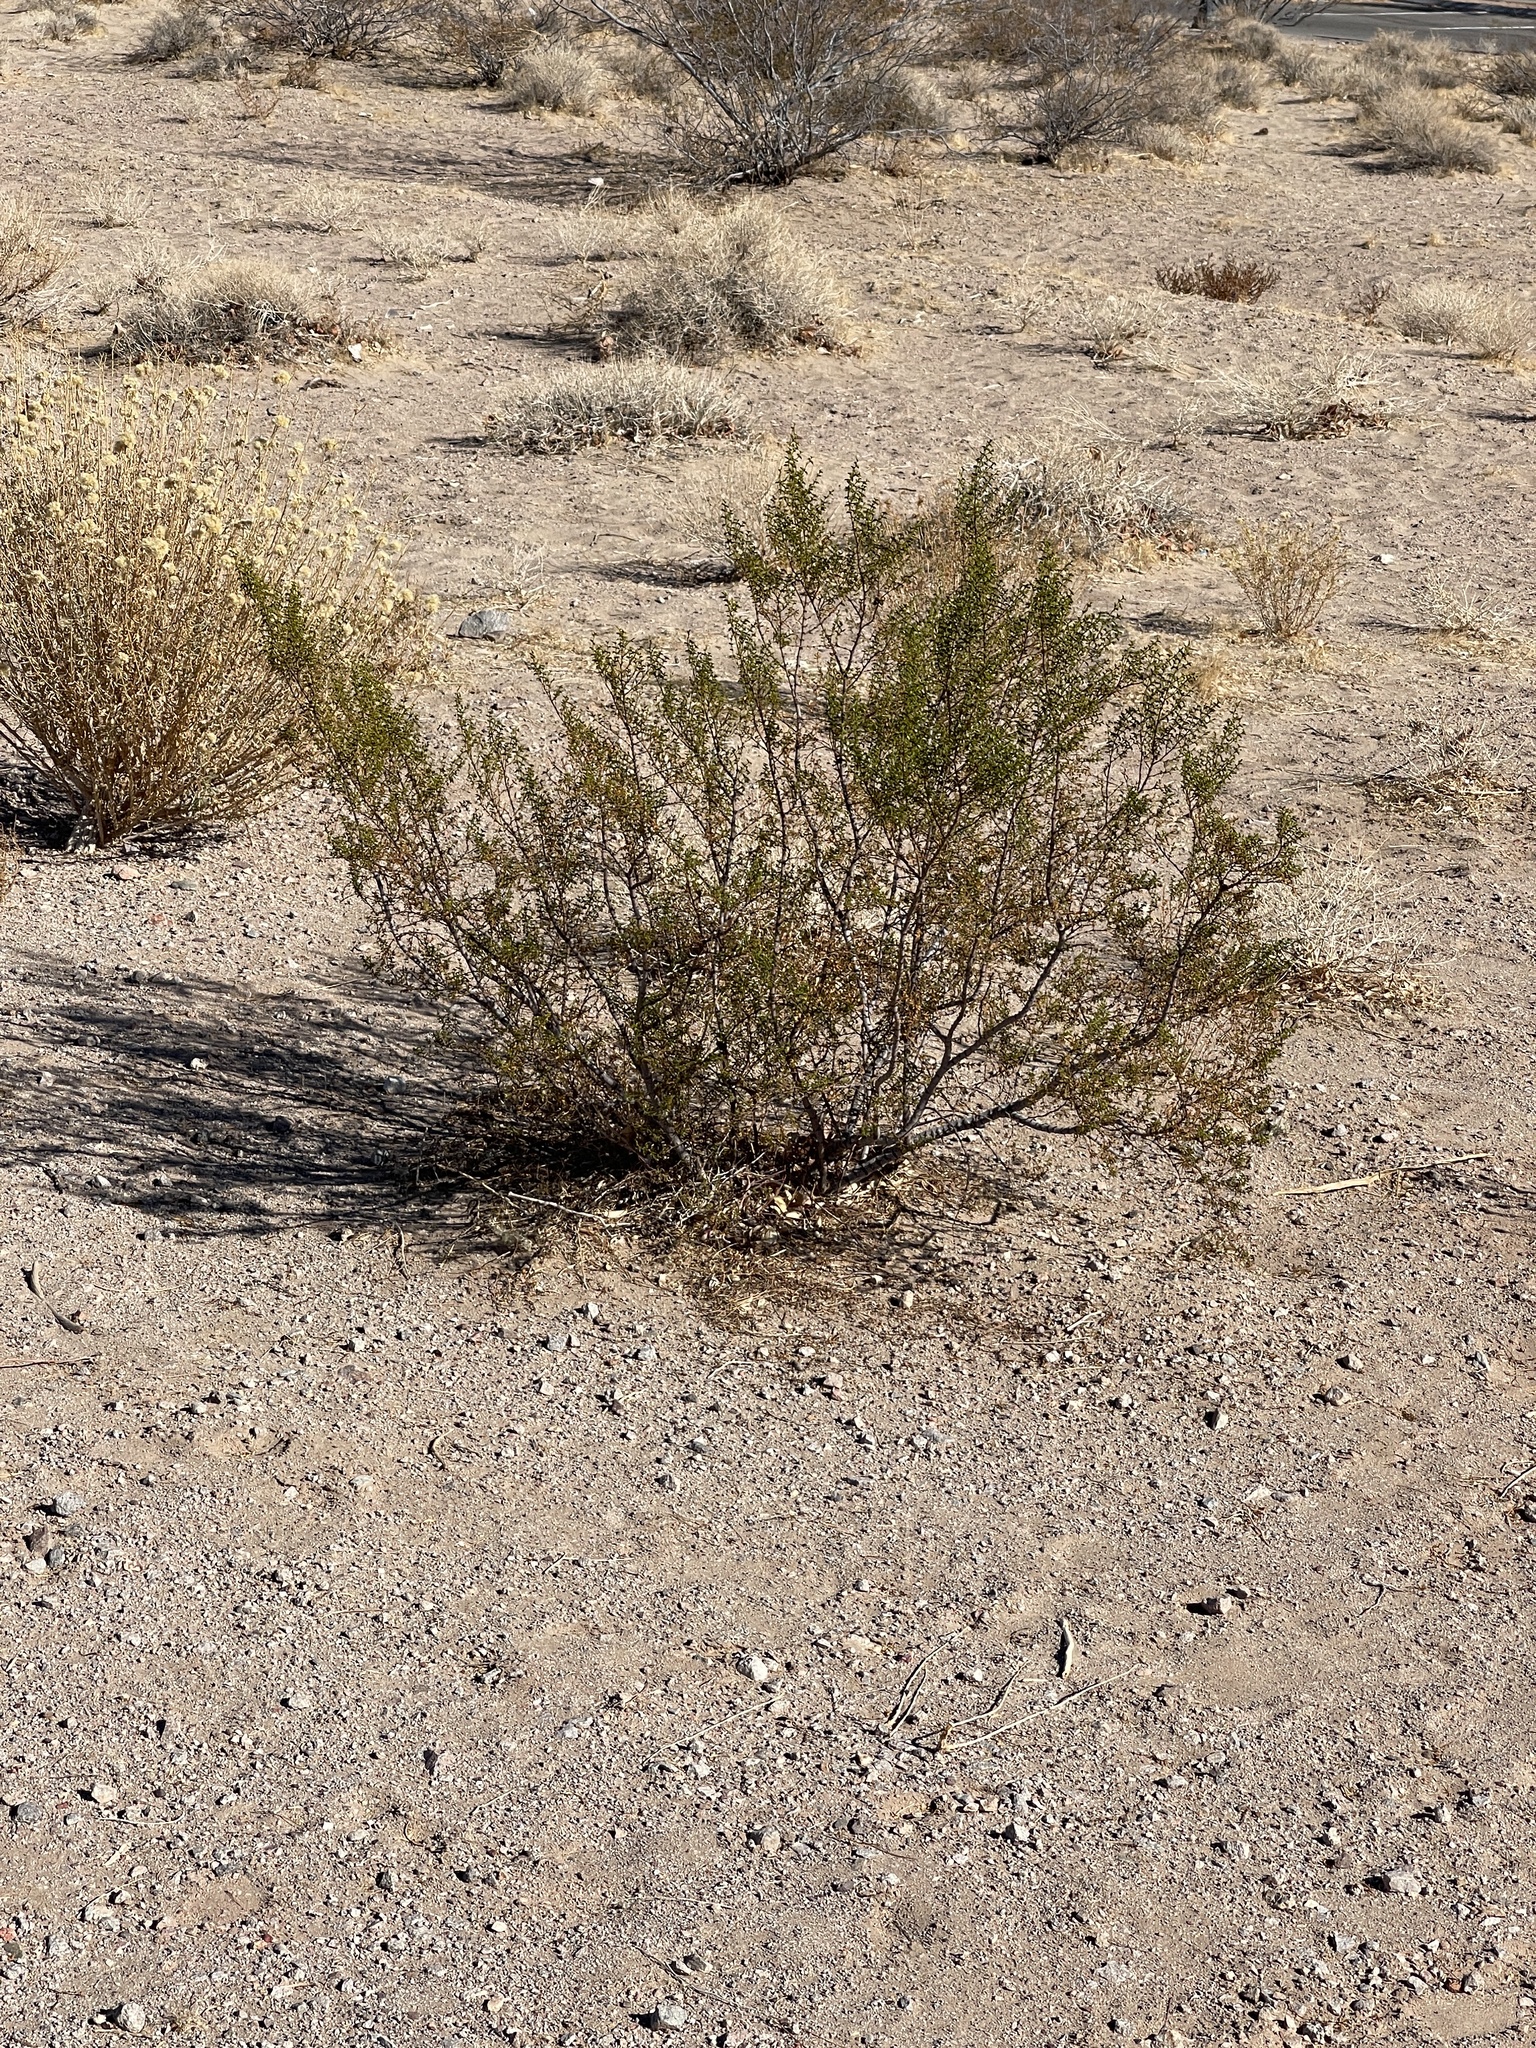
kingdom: Plantae
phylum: Tracheophyta
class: Magnoliopsida
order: Zygophyllales
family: Zygophyllaceae
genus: Larrea
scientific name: Larrea tridentata
